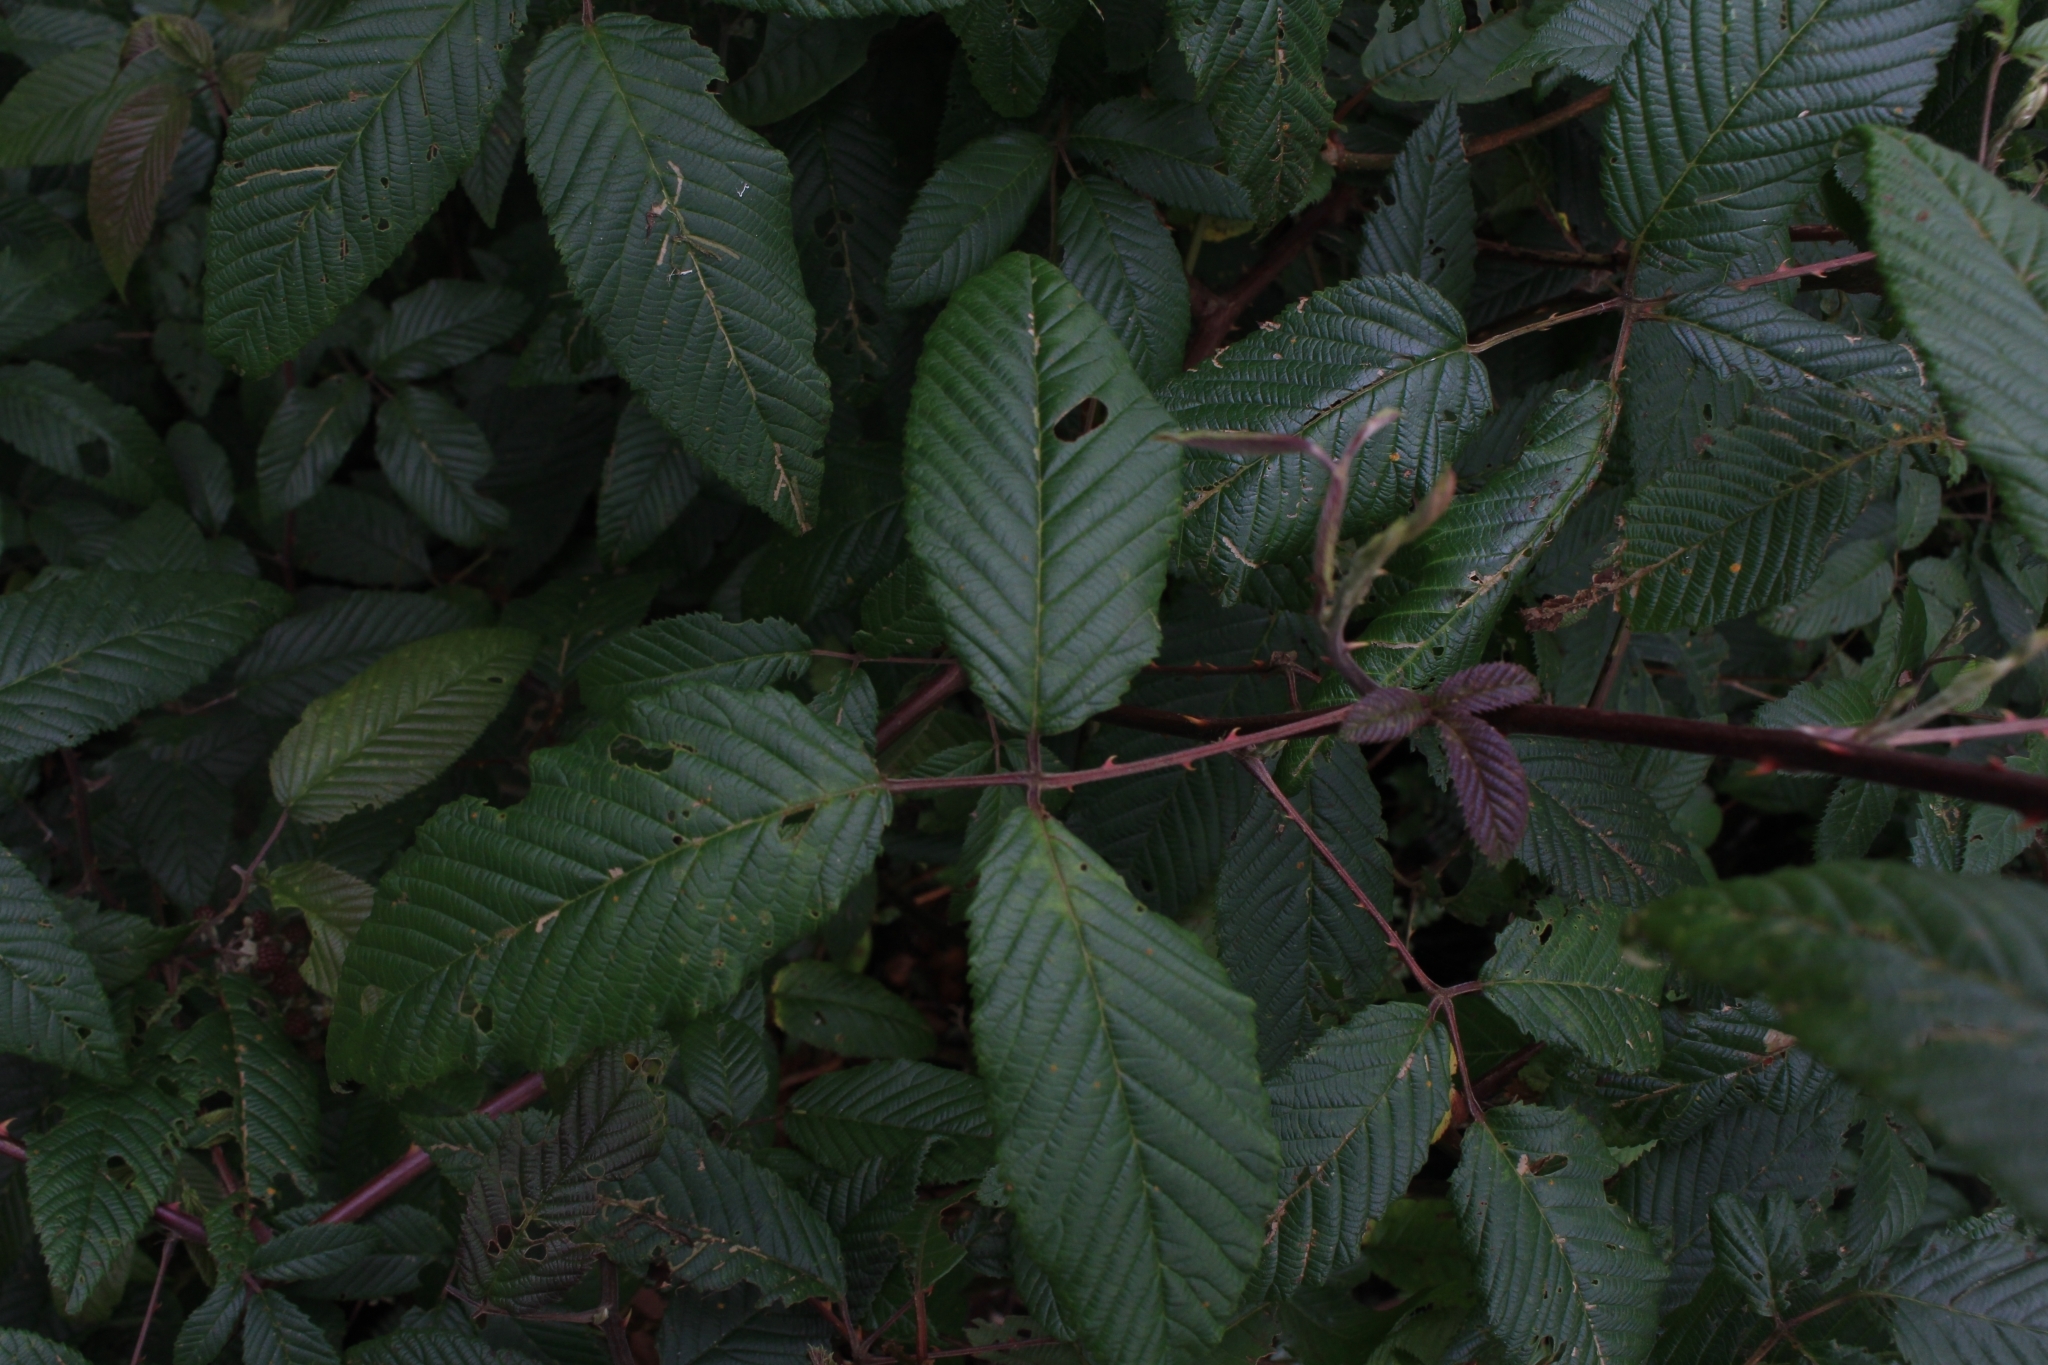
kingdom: Plantae
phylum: Tracheophyta
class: Magnoliopsida
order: Rosales
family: Rosaceae
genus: Rubus
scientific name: Rubus glaucus
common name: Andean blackberry
